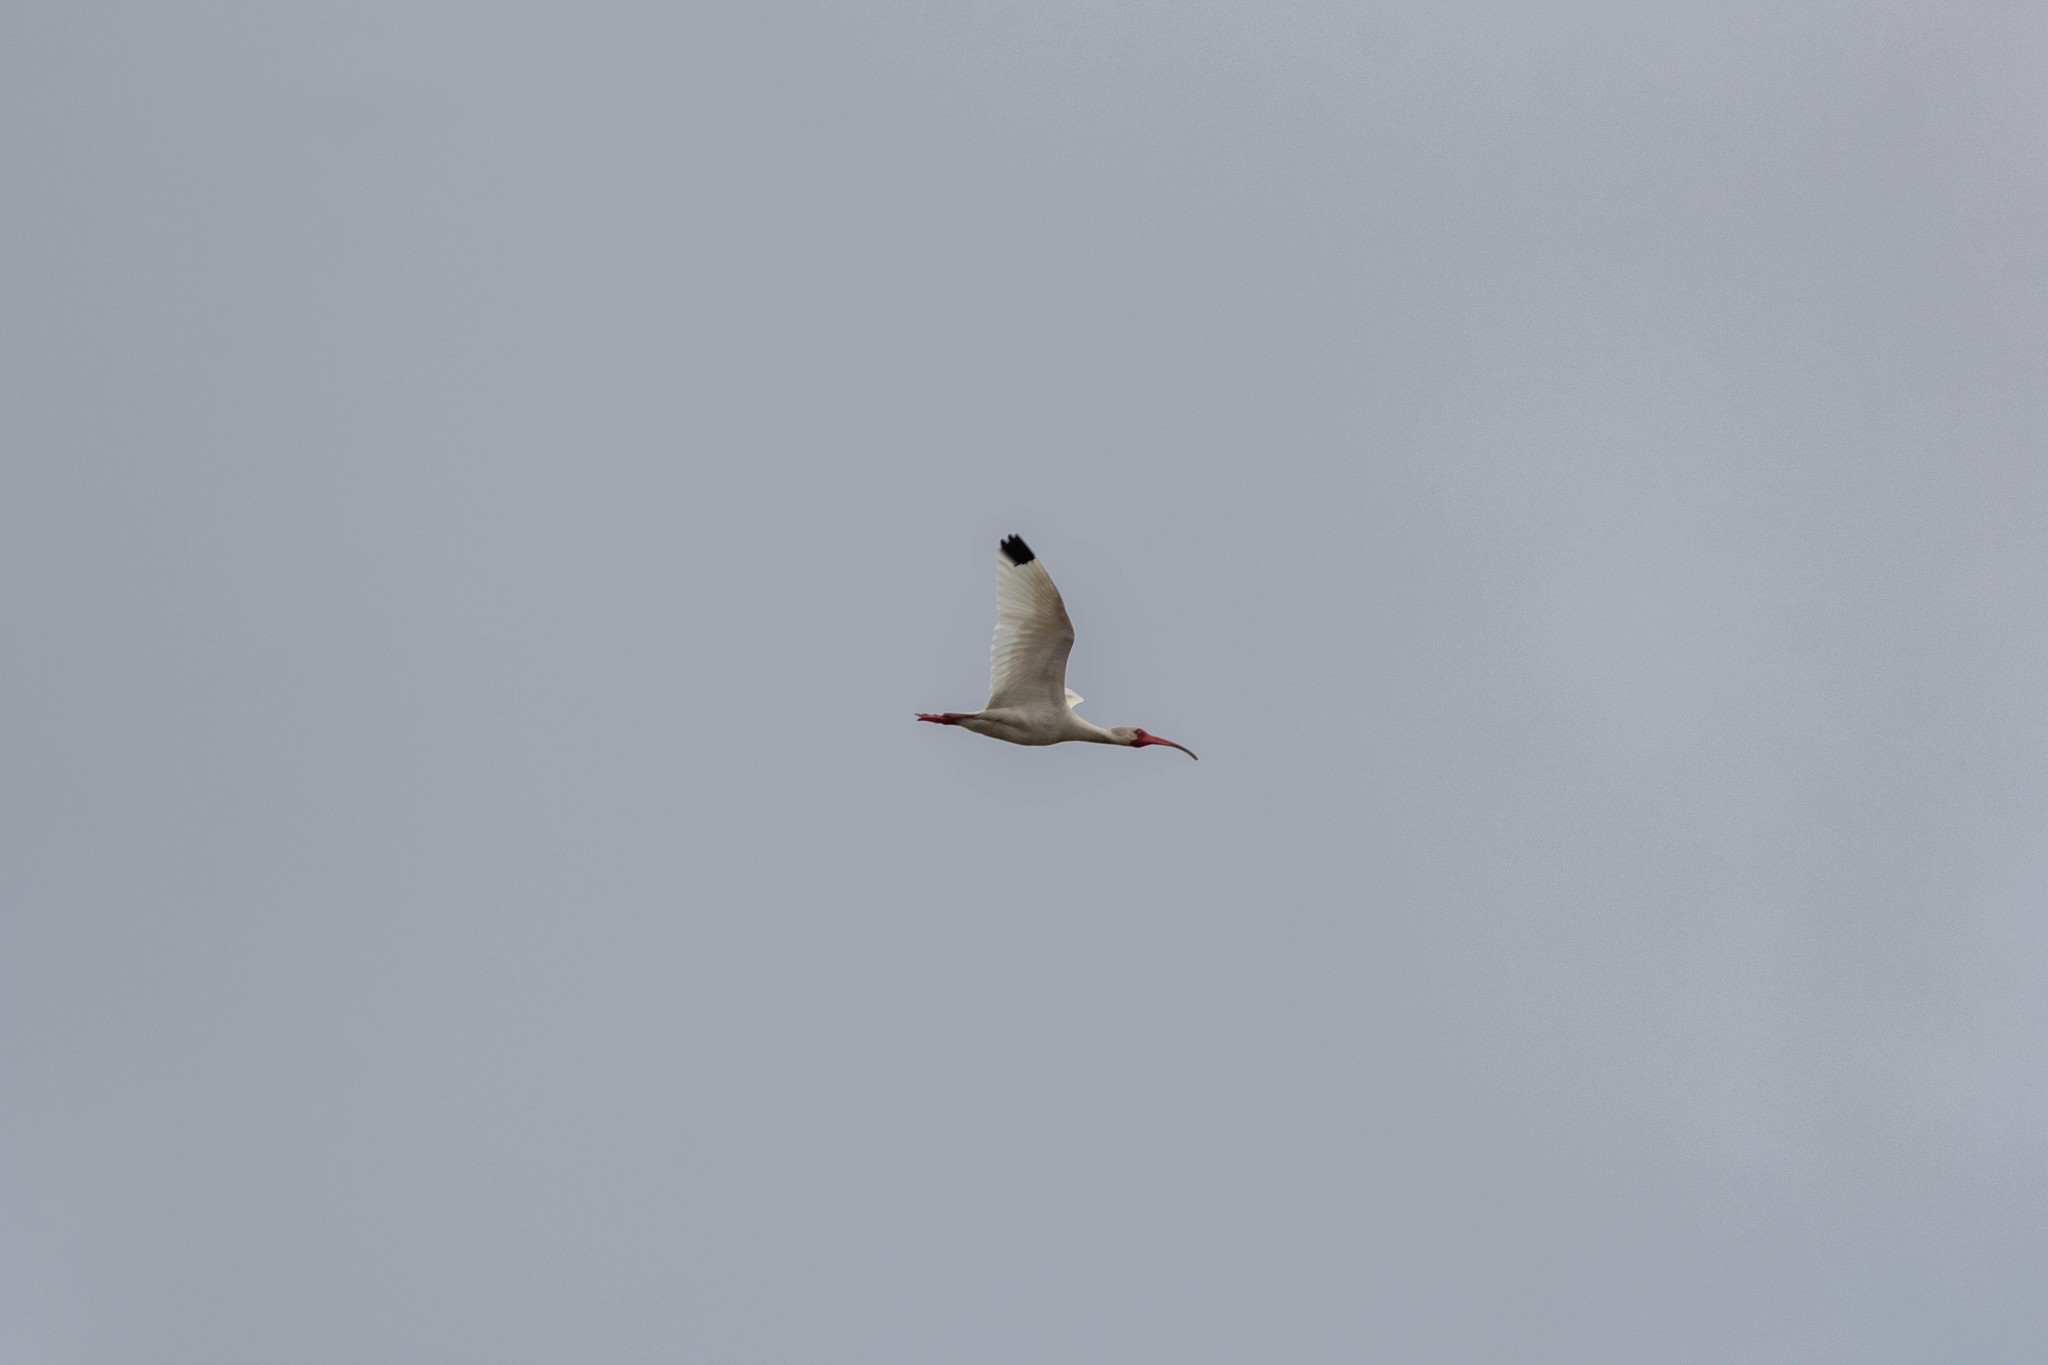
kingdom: Animalia
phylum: Chordata
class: Aves
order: Pelecaniformes
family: Threskiornithidae
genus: Eudocimus
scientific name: Eudocimus albus
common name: White ibis
